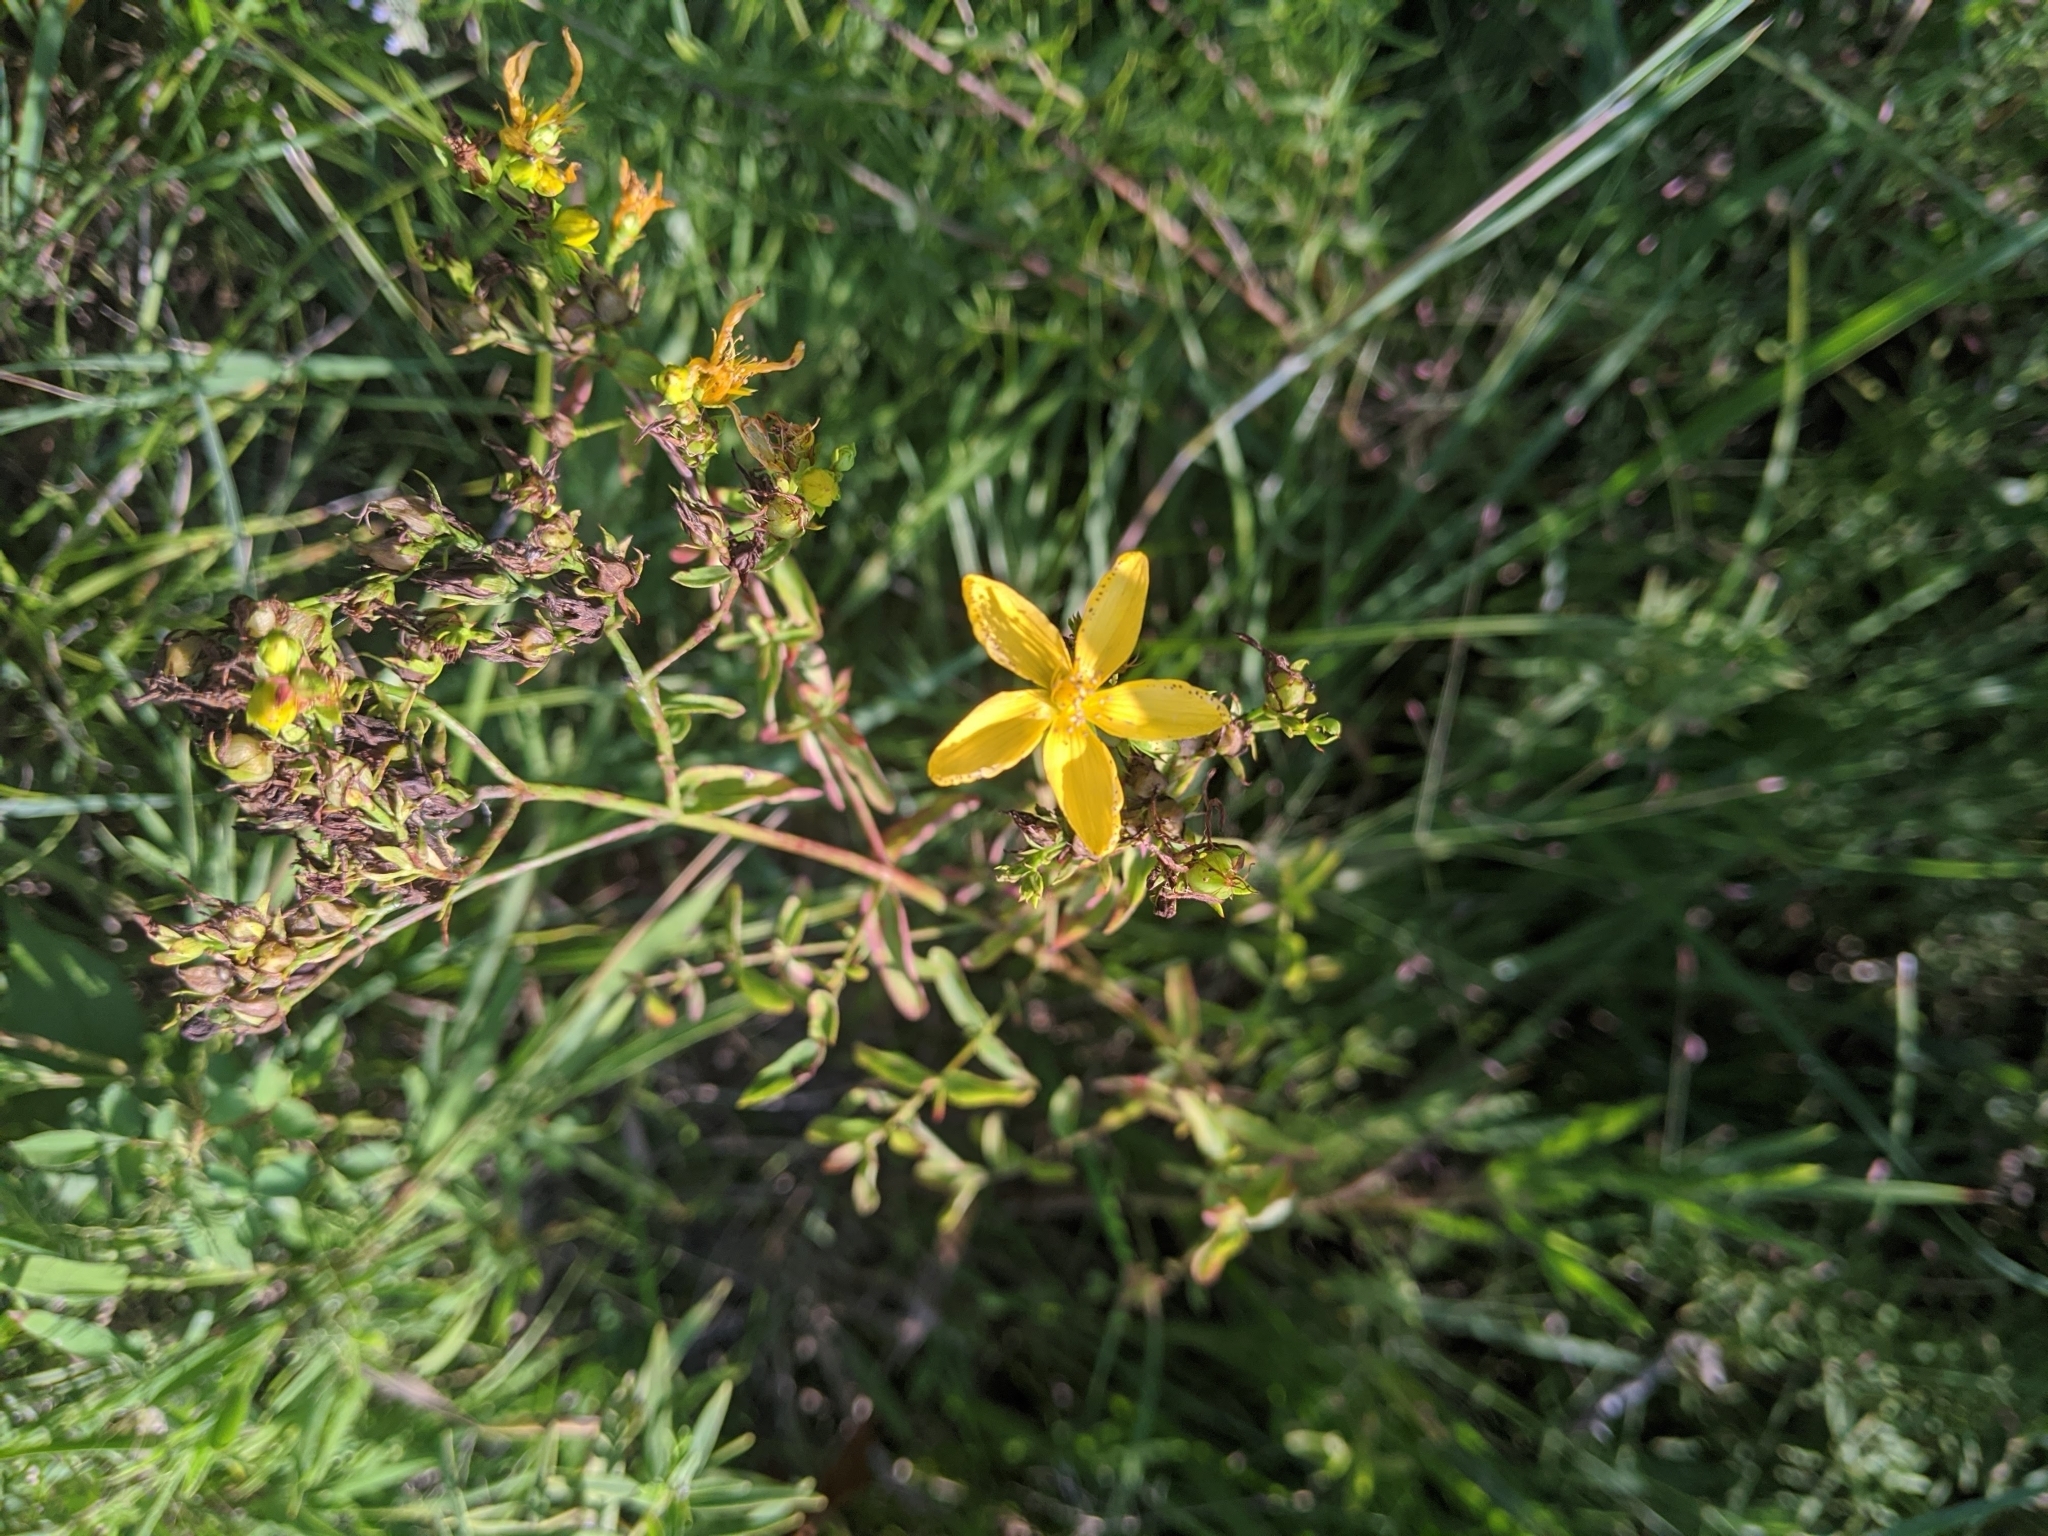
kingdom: Plantae
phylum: Tracheophyta
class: Magnoliopsida
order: Malpighiales
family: Hypericaceae
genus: Hypericum
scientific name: Hypericum perforatum
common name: Common st. johnswort
